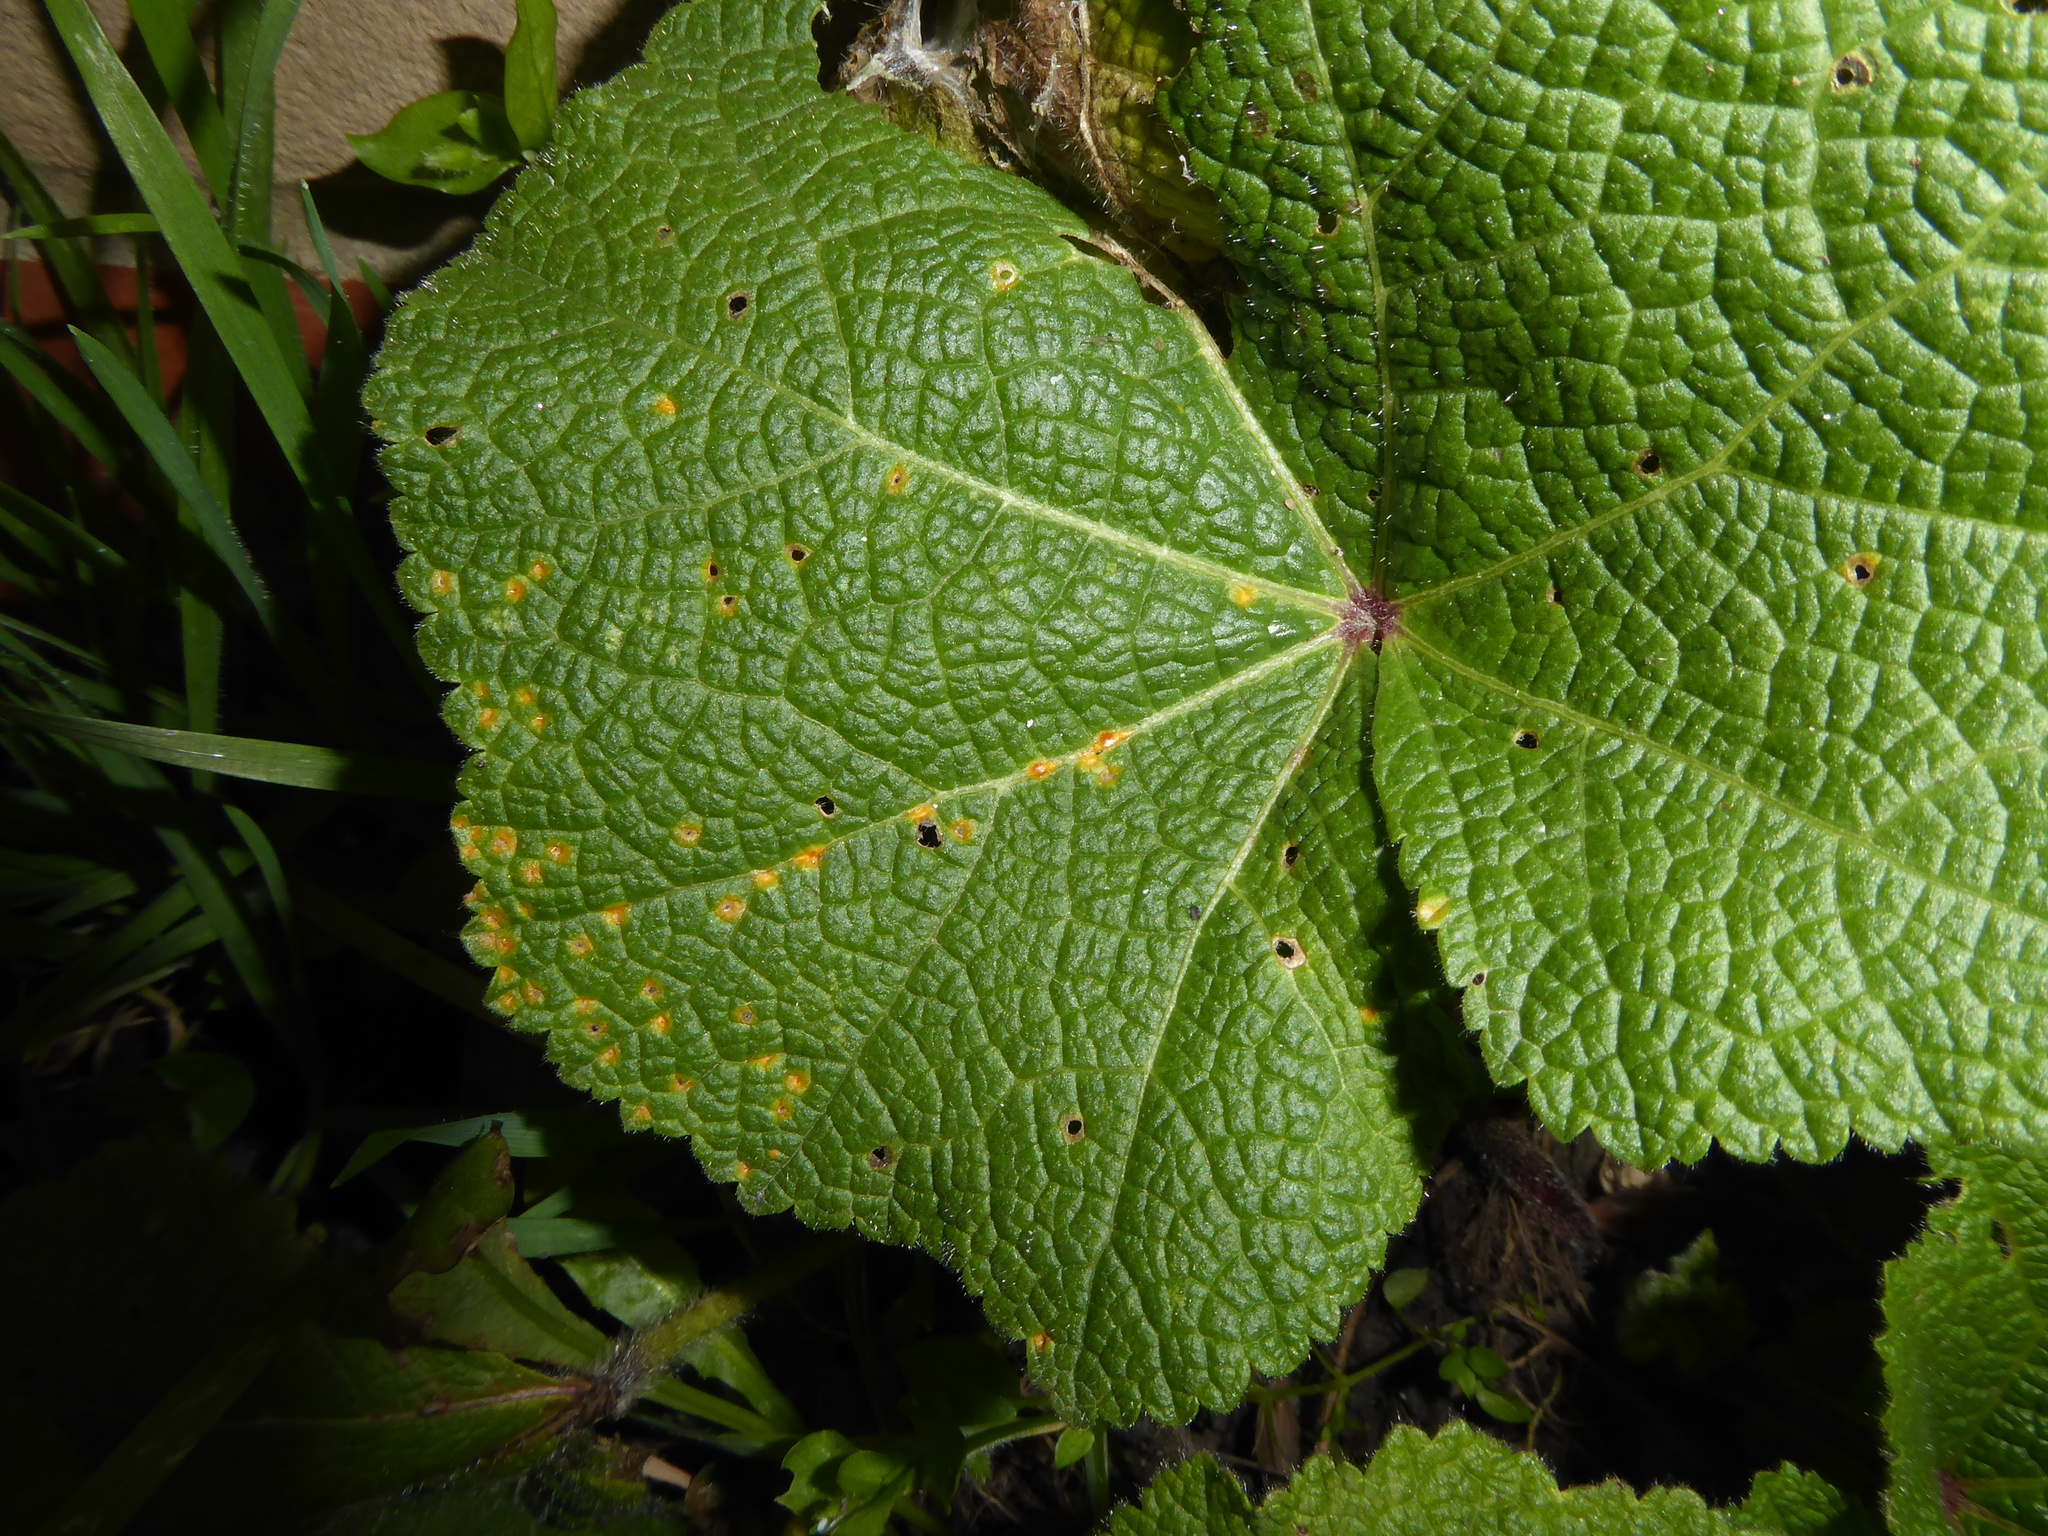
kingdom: Fungi
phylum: Basidiomycota
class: Pucciniomycetes
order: Pucciniales
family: Pucciniaceae
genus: Puccinia
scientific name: Puccinia malvacearum
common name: Hollyhock rust
